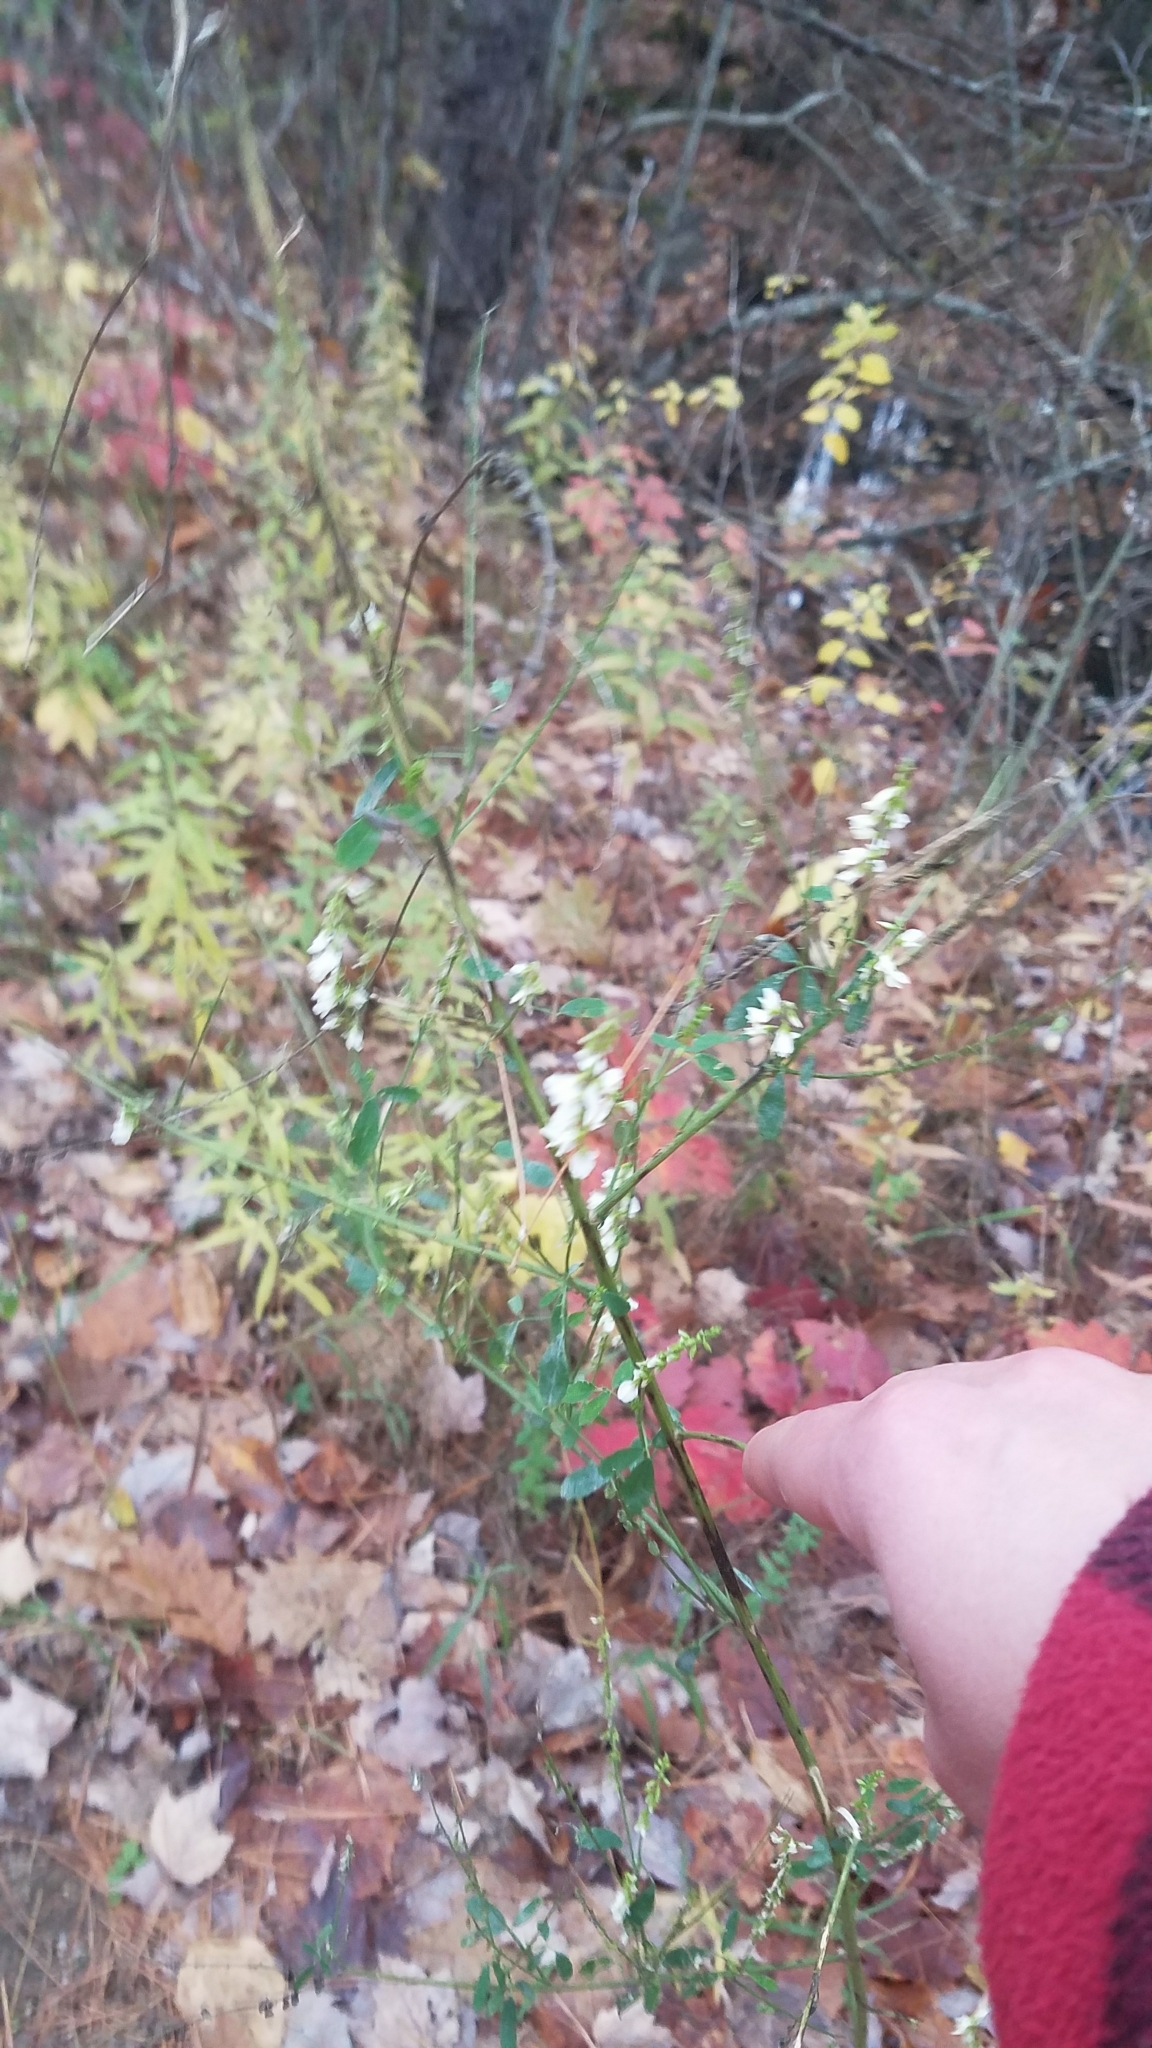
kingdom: Plantae
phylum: Tracheophyta
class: Magnoliopsida
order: Fabales
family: Fabaceae
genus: Melilotus
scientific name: Melilotus albus
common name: White melilot
